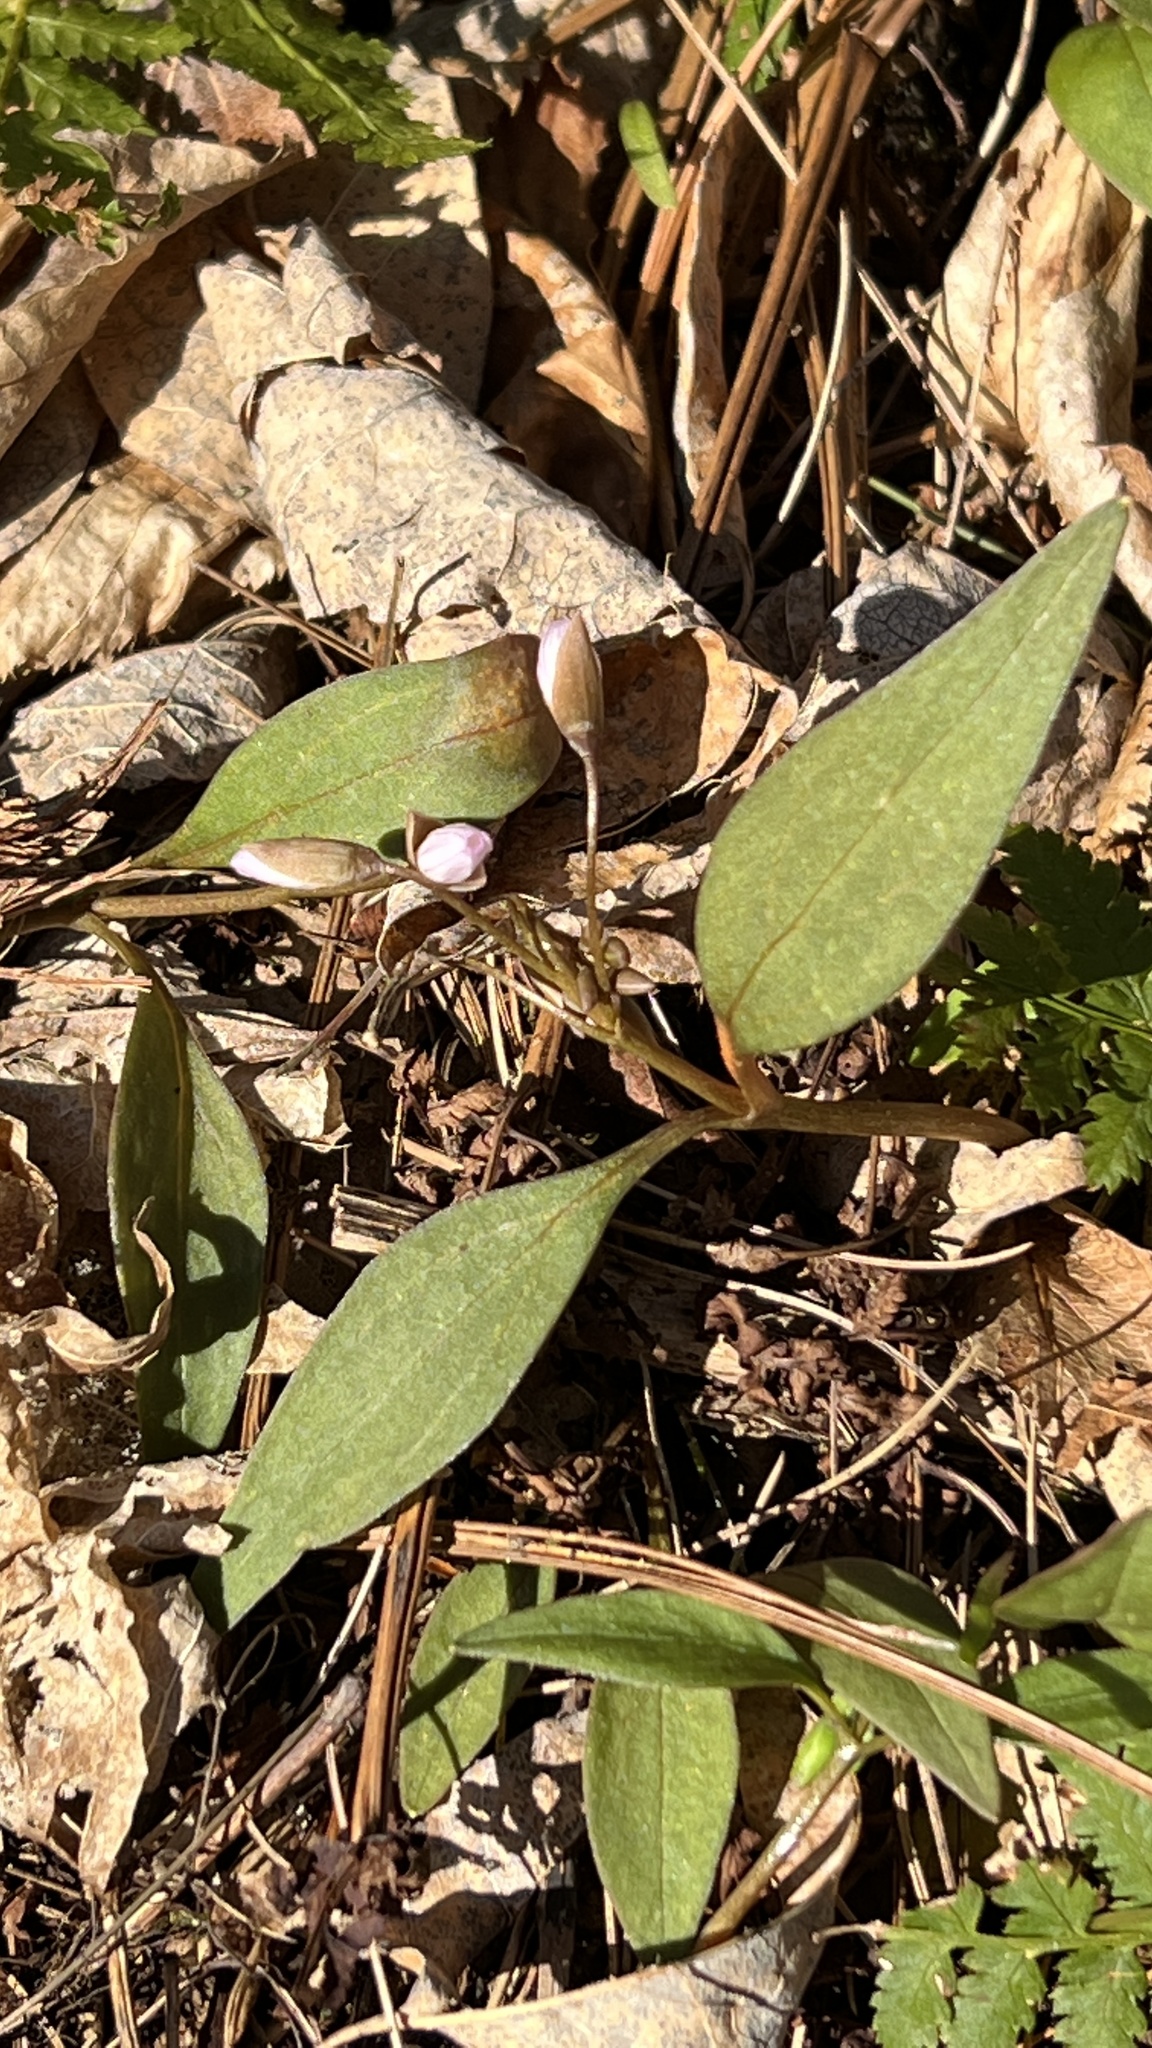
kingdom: Plantae
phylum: Tracheophyta
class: Magnoliopsida
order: Caryophyllales
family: Montiaceae
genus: Claytonia
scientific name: Claytonia caroliniana
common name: Carolina spring beauty
